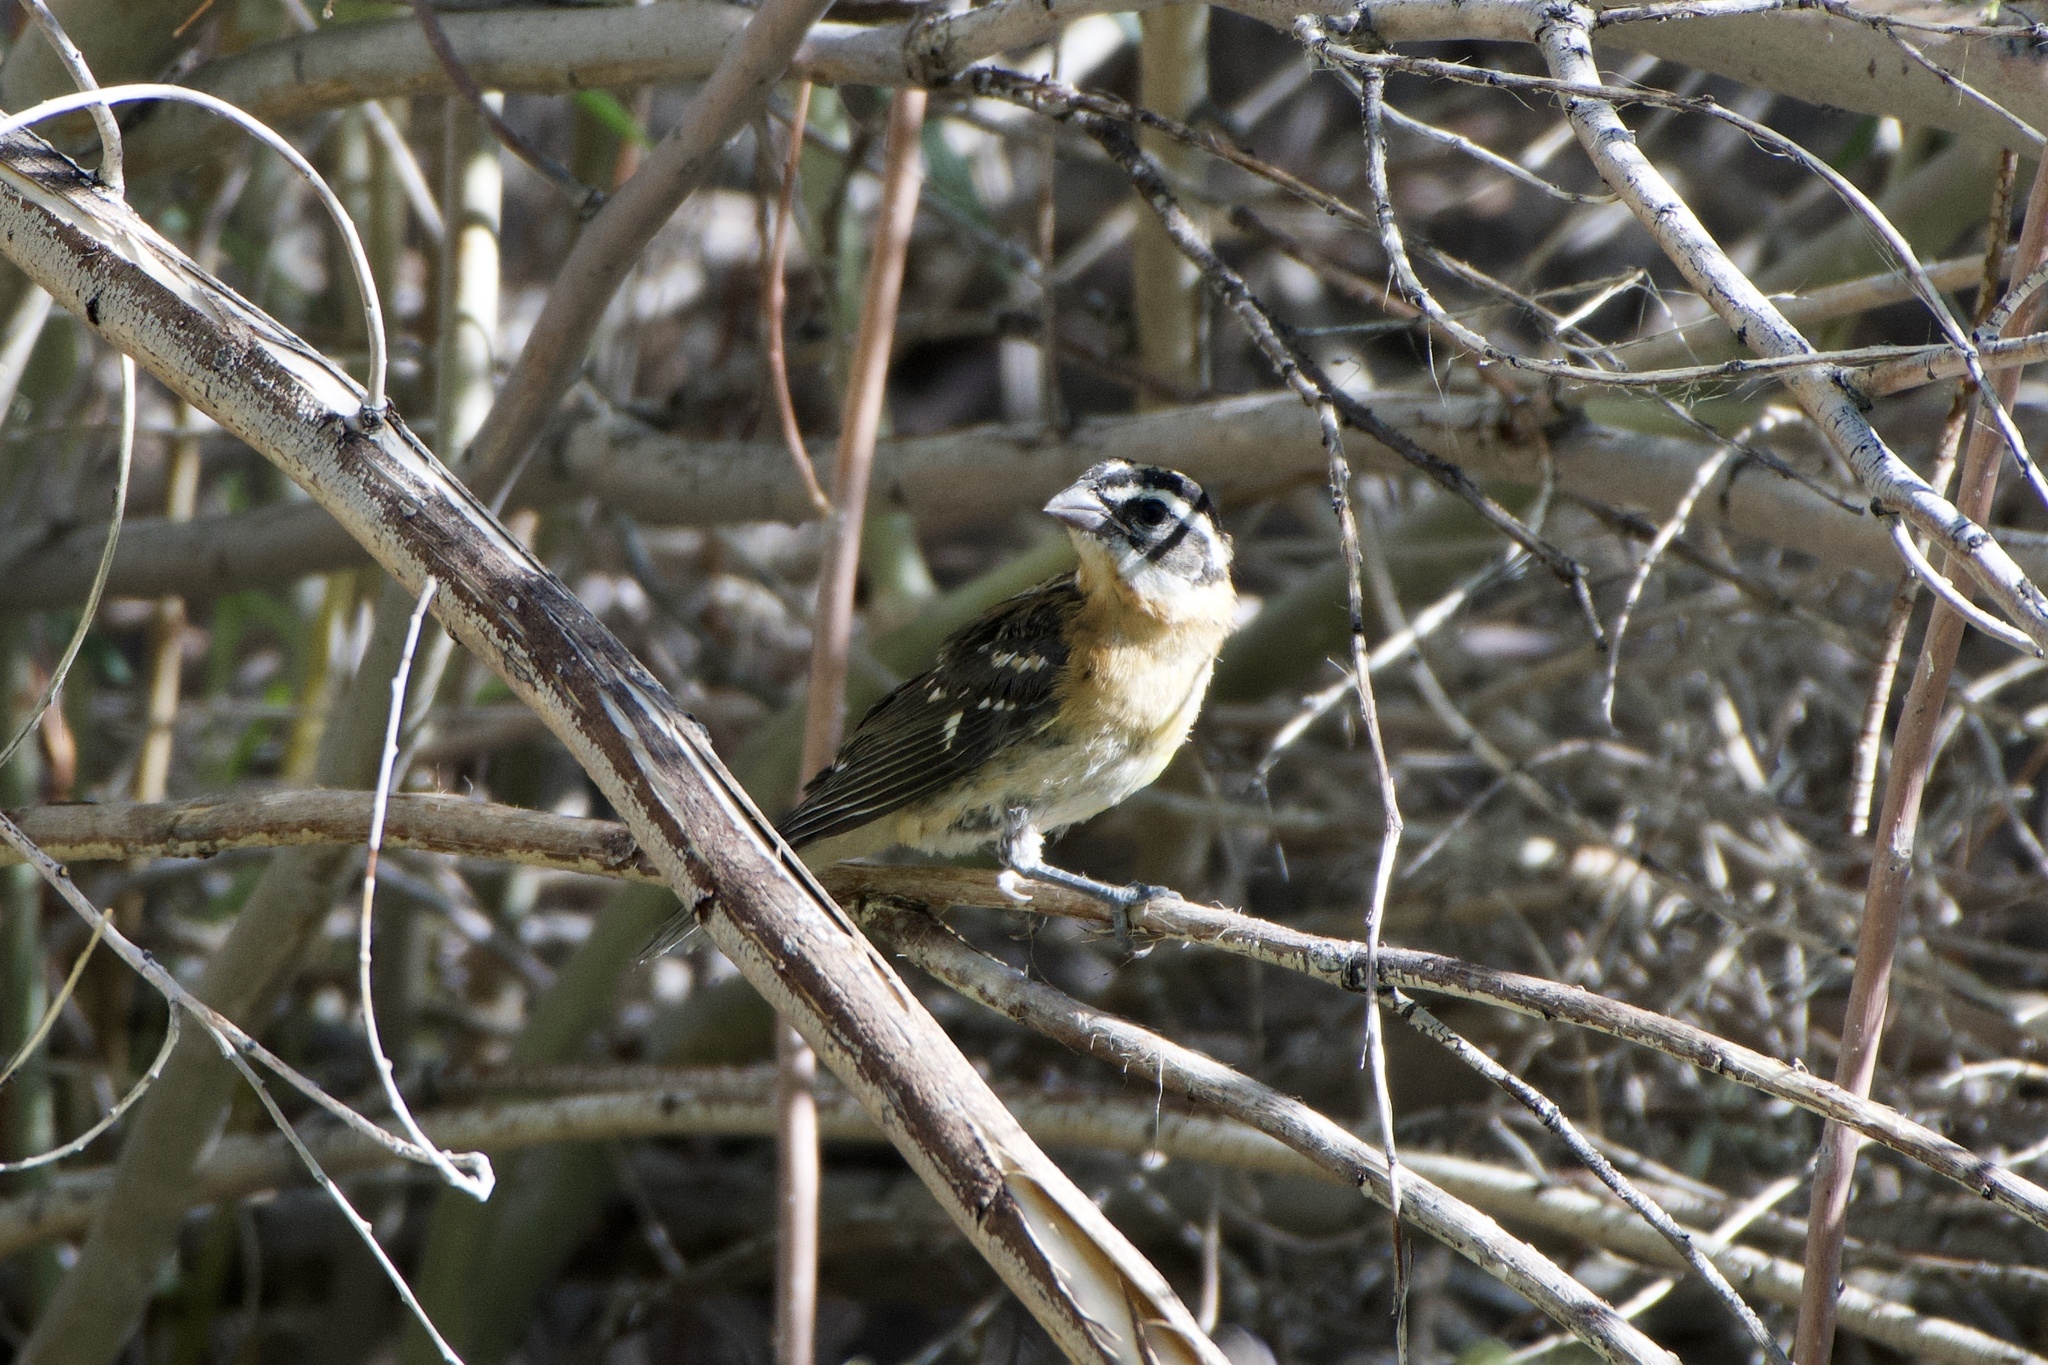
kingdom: Animalia
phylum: Chordata
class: Aves
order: Passeriformes
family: Cardinalidae
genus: Pheucticus
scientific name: Pheucticus melanocephalus
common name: Black-headed grosbeak
